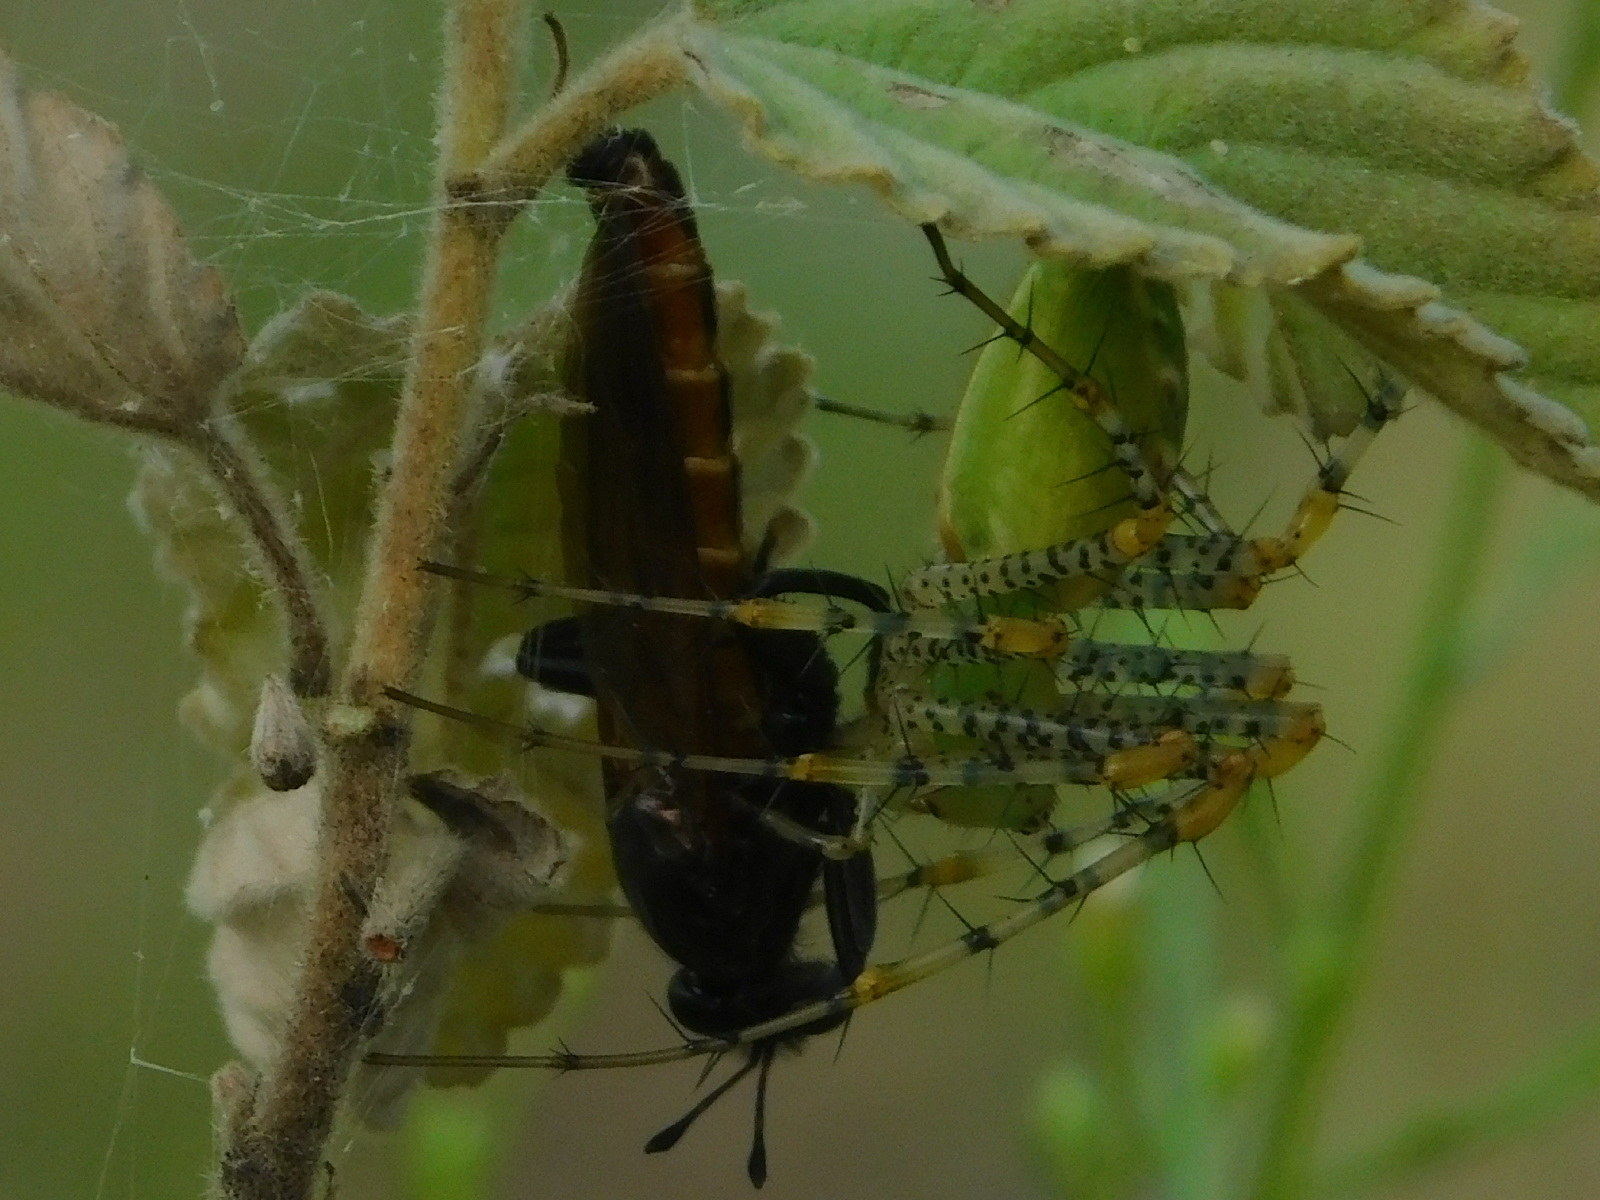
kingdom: Animalia
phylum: Arthropoda
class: Arachnida
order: Araneae
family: Oxyopidae
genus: Peucetia
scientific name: Peucetia viridans
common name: Lynx spiders
